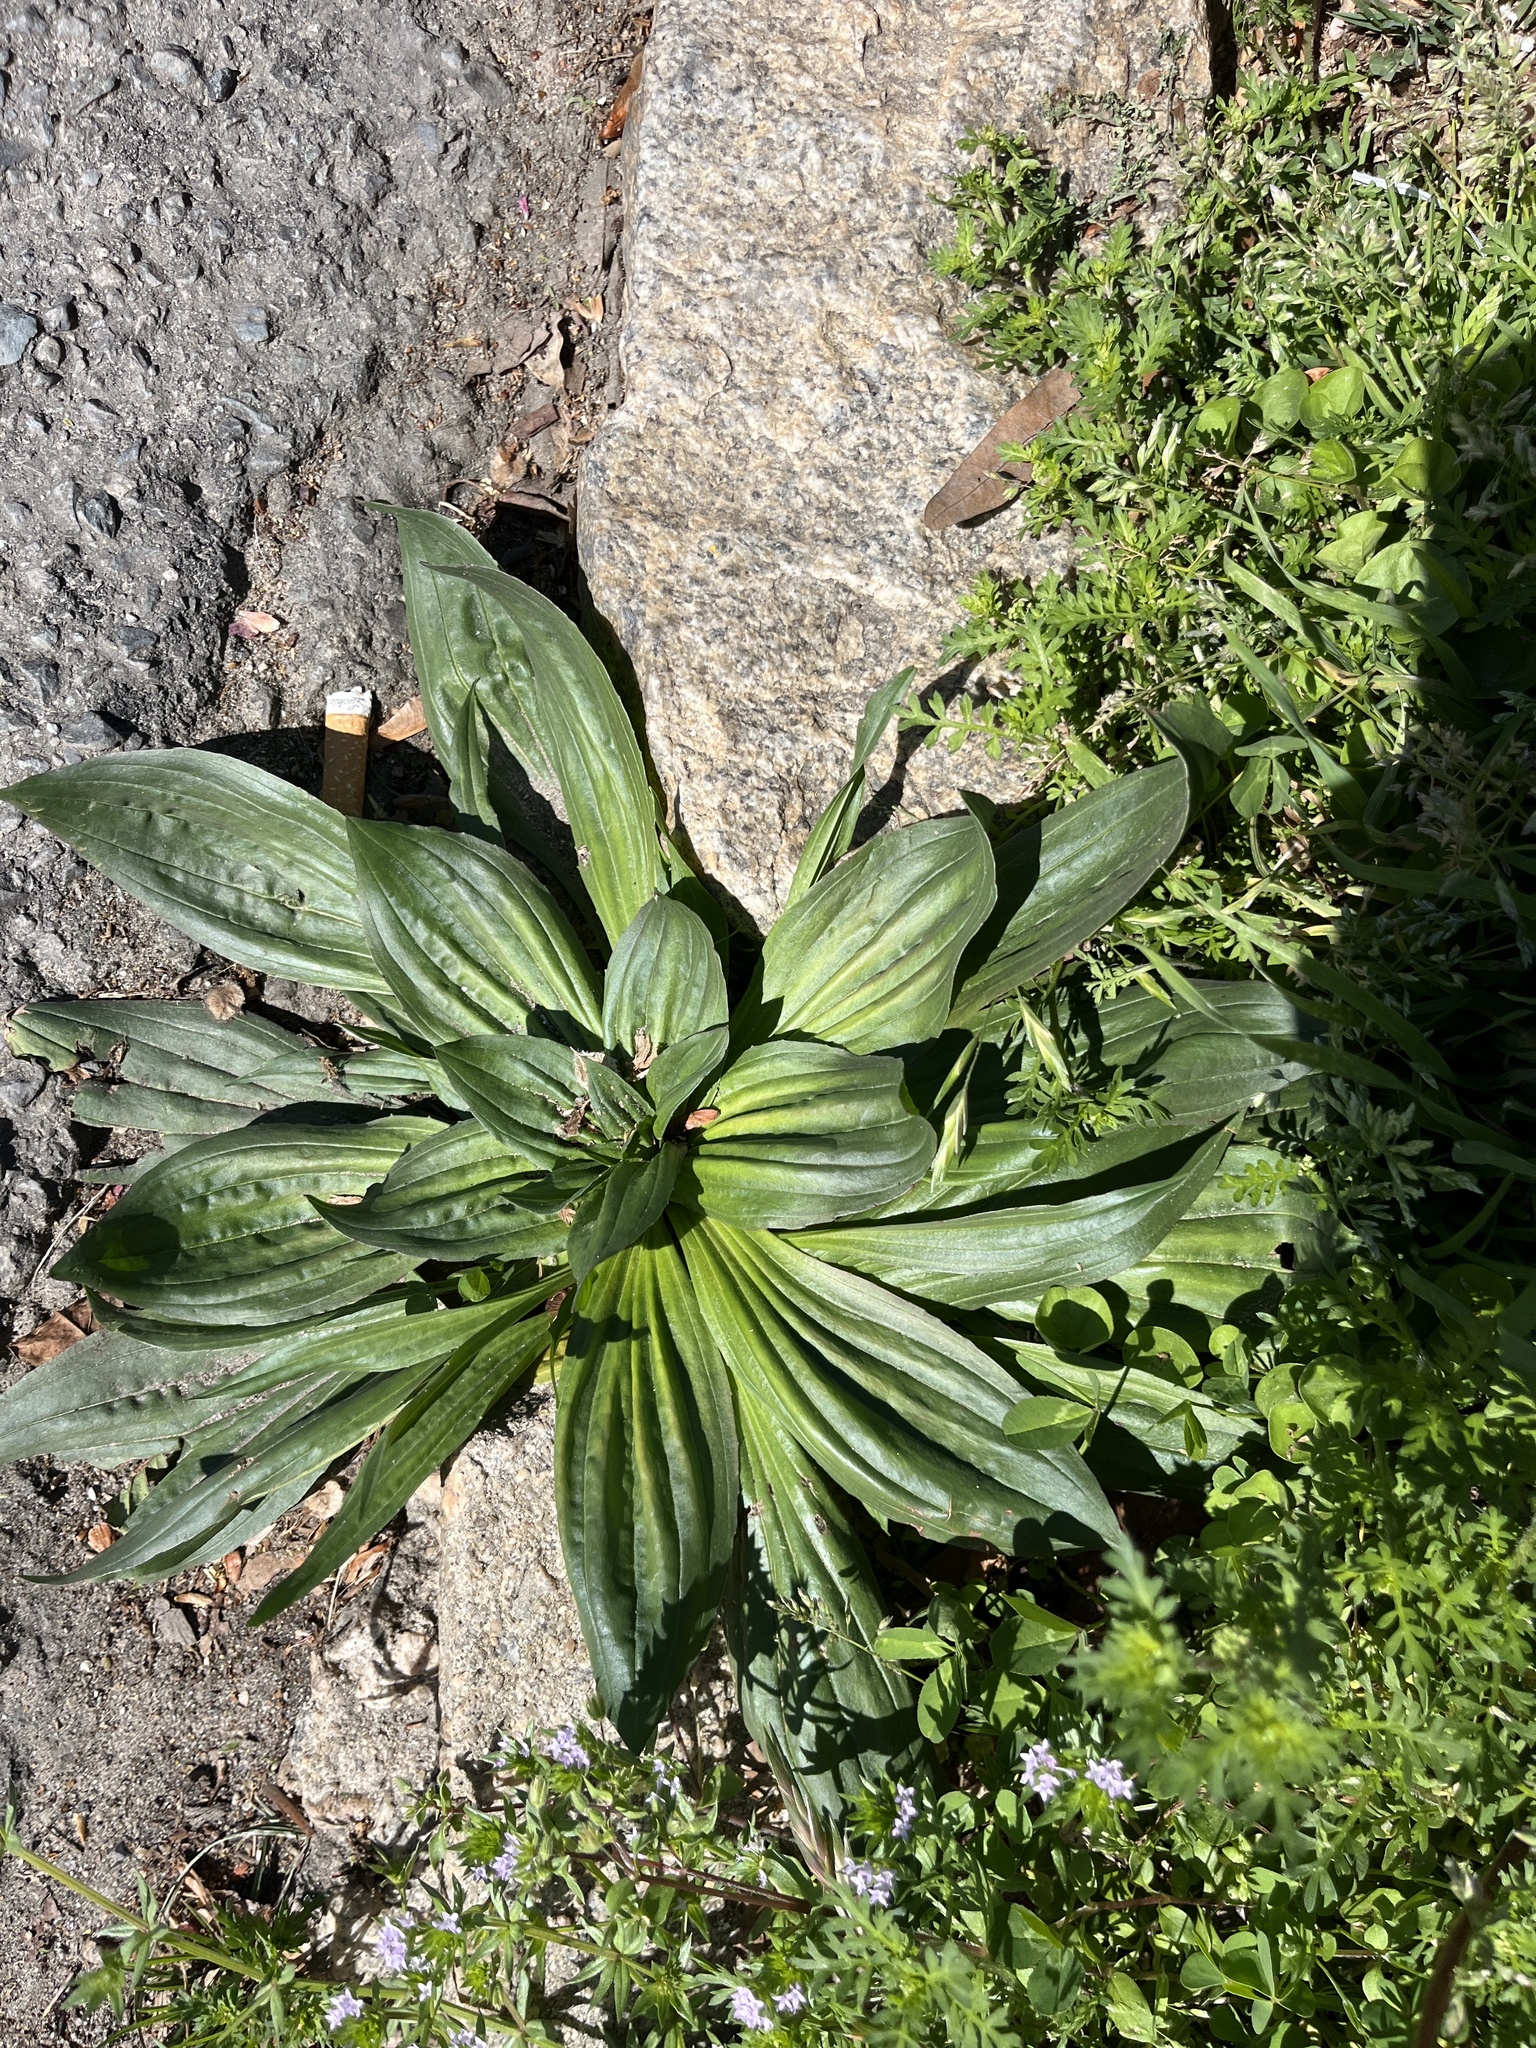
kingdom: Plantae
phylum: Tracheophyta
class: Magnoliopsida
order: Lamiales
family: Plantaginaceae
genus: Plantago
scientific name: Plantago lanceolata
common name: Ribwort plantain
